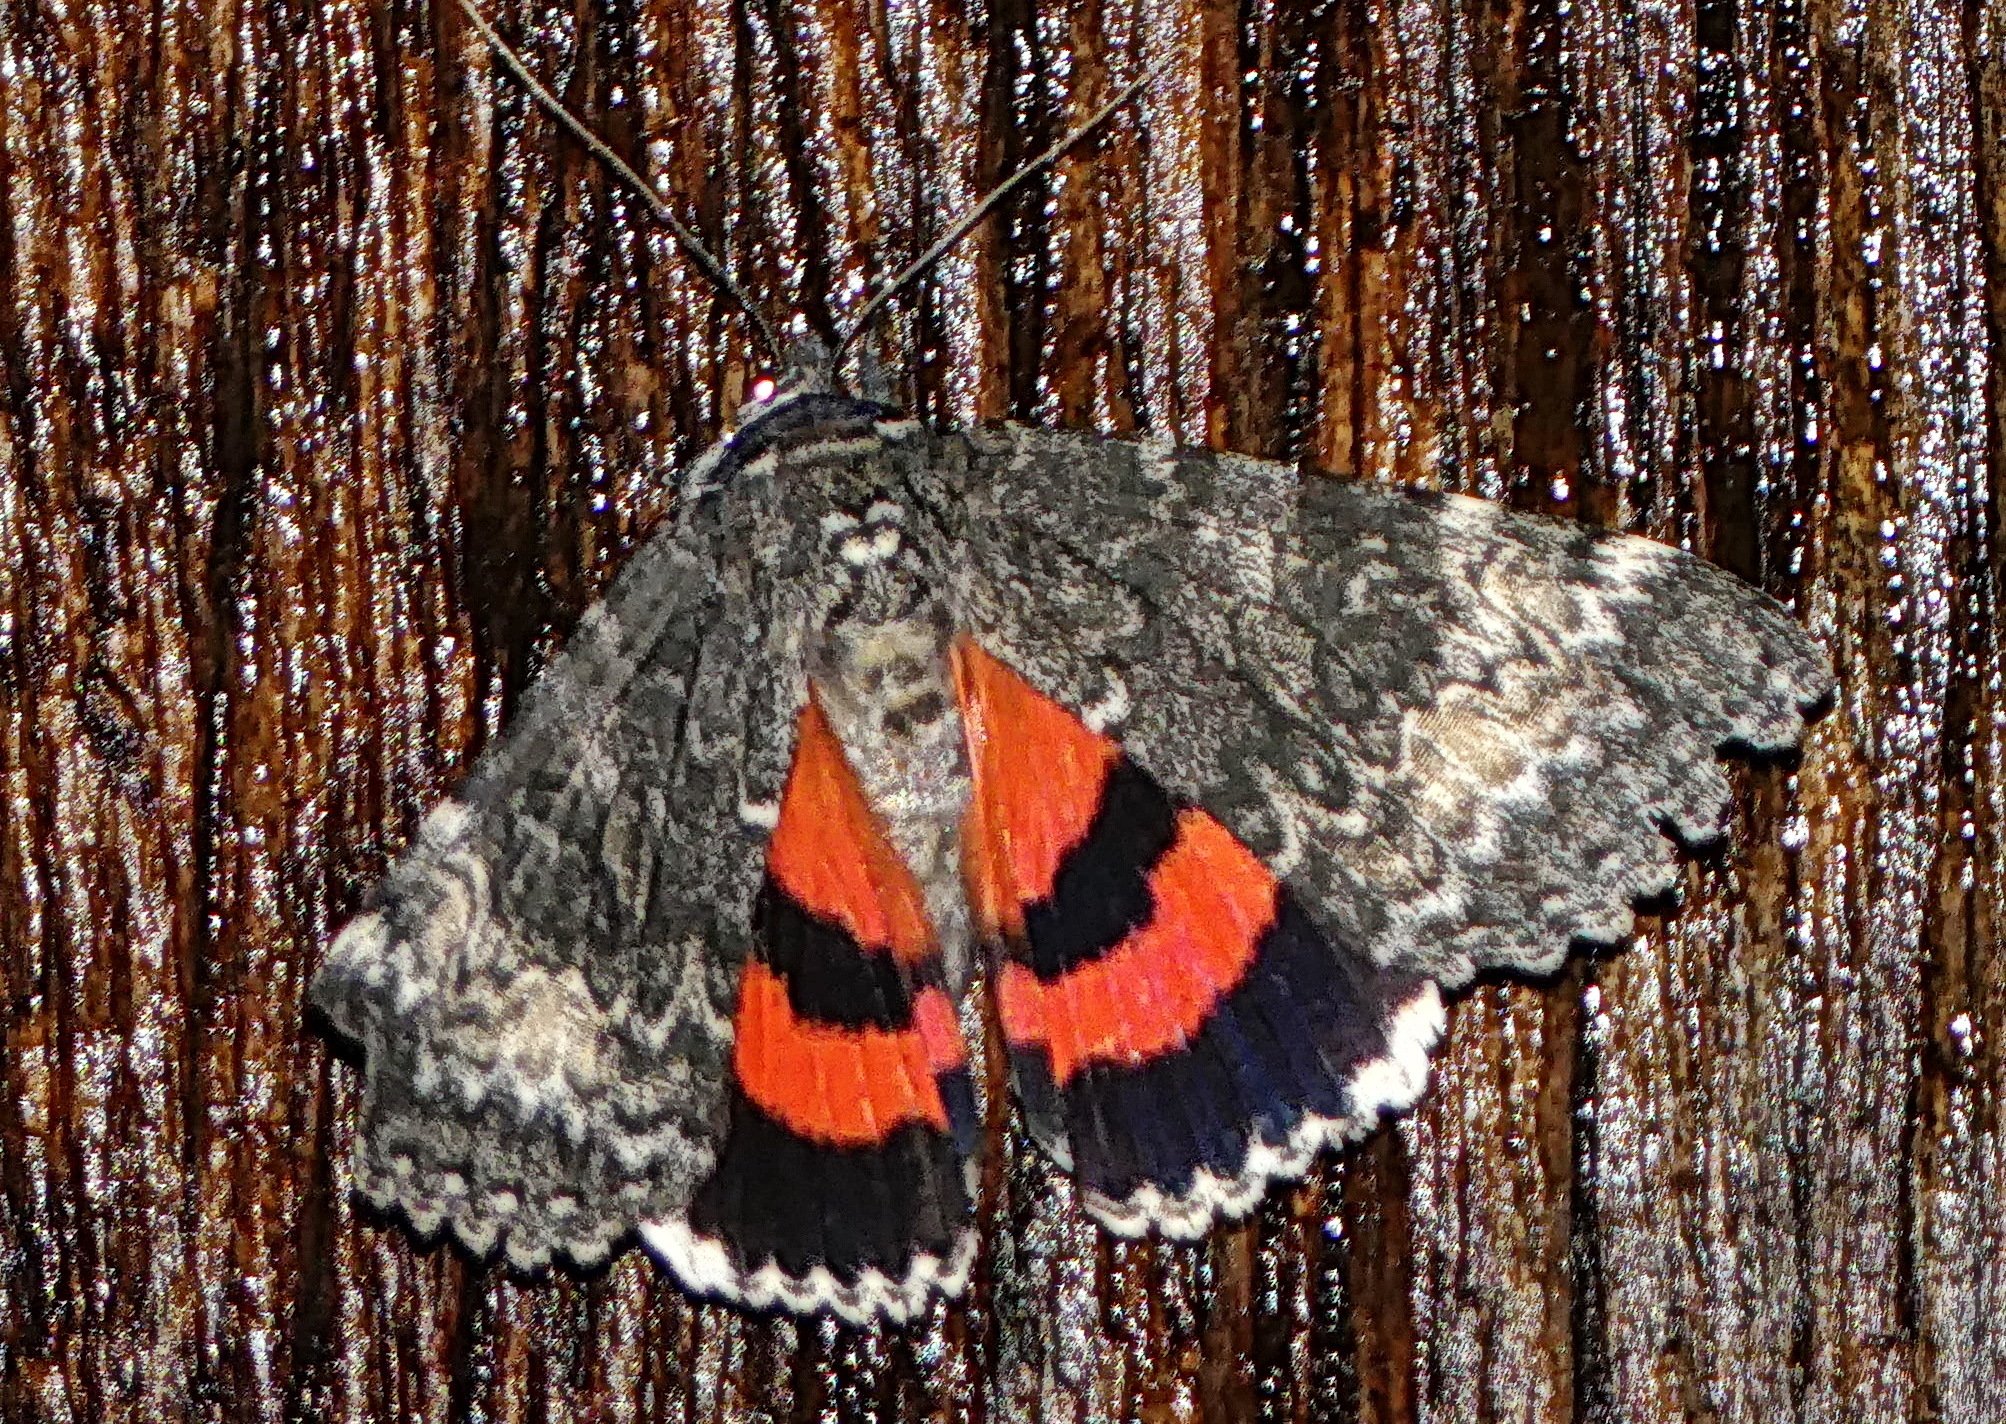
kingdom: Animalia
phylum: Arthropoda
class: Insecta
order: Lepidoptera
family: Erebidae
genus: Catocala
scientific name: Catocala briseis
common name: Briseis underwing
